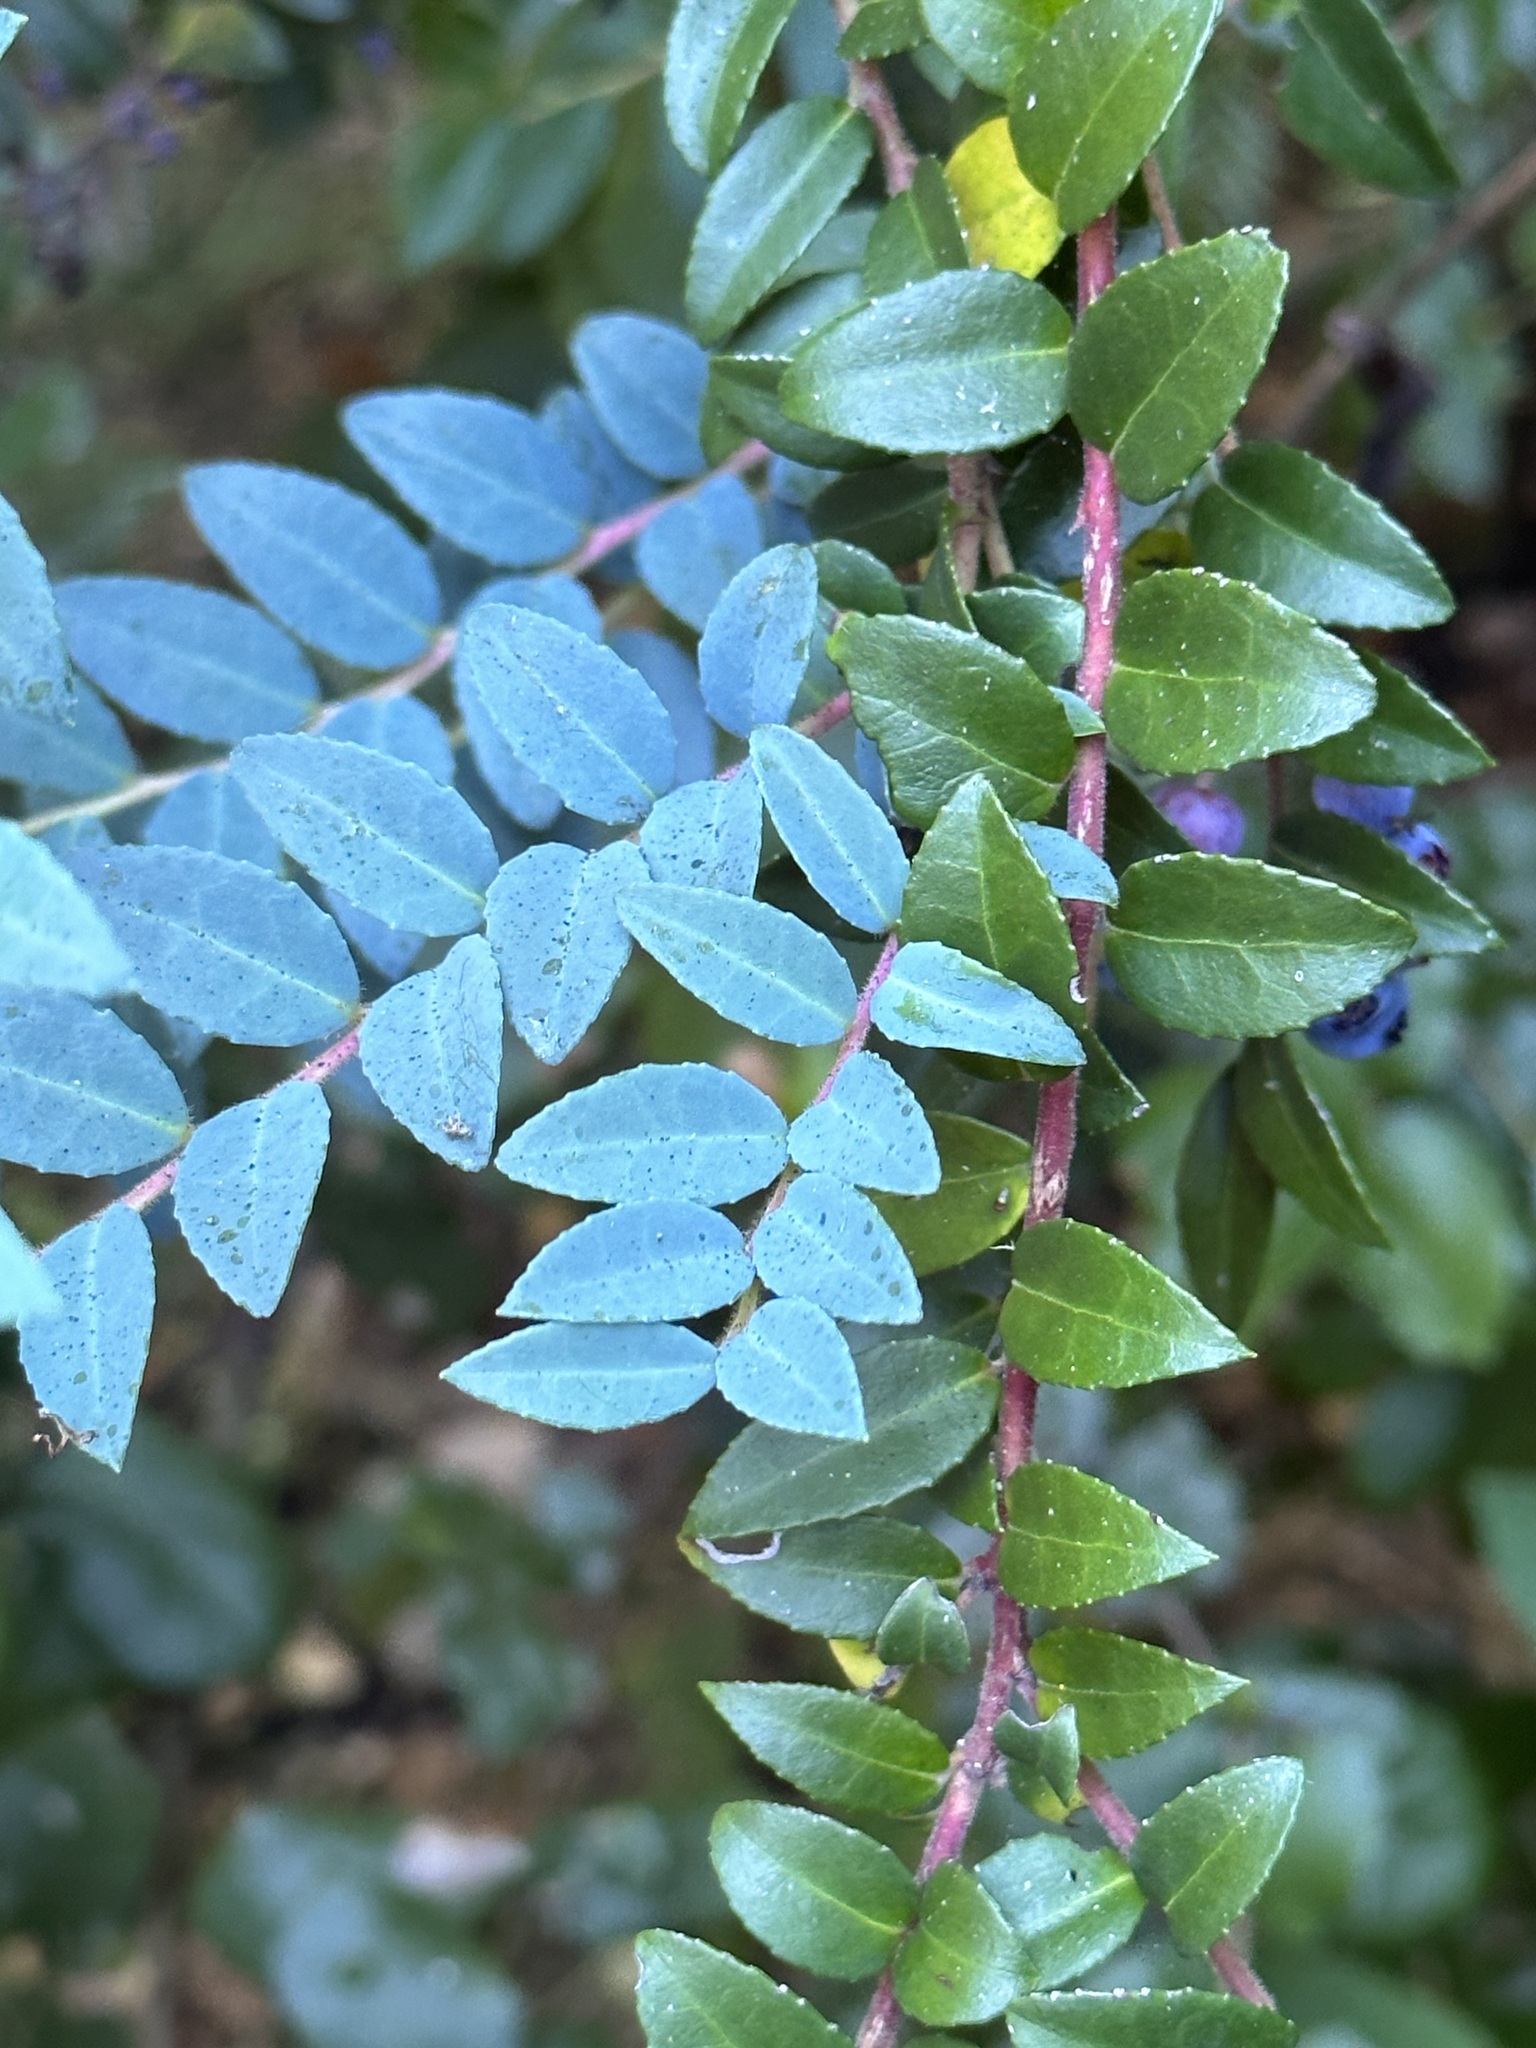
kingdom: Plantae
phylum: Tracheophyta
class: Magnoliopsida
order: Ericales
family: Ericaceae
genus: Vaccinium
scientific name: Vaccinium ovatum
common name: California-huckleberry
